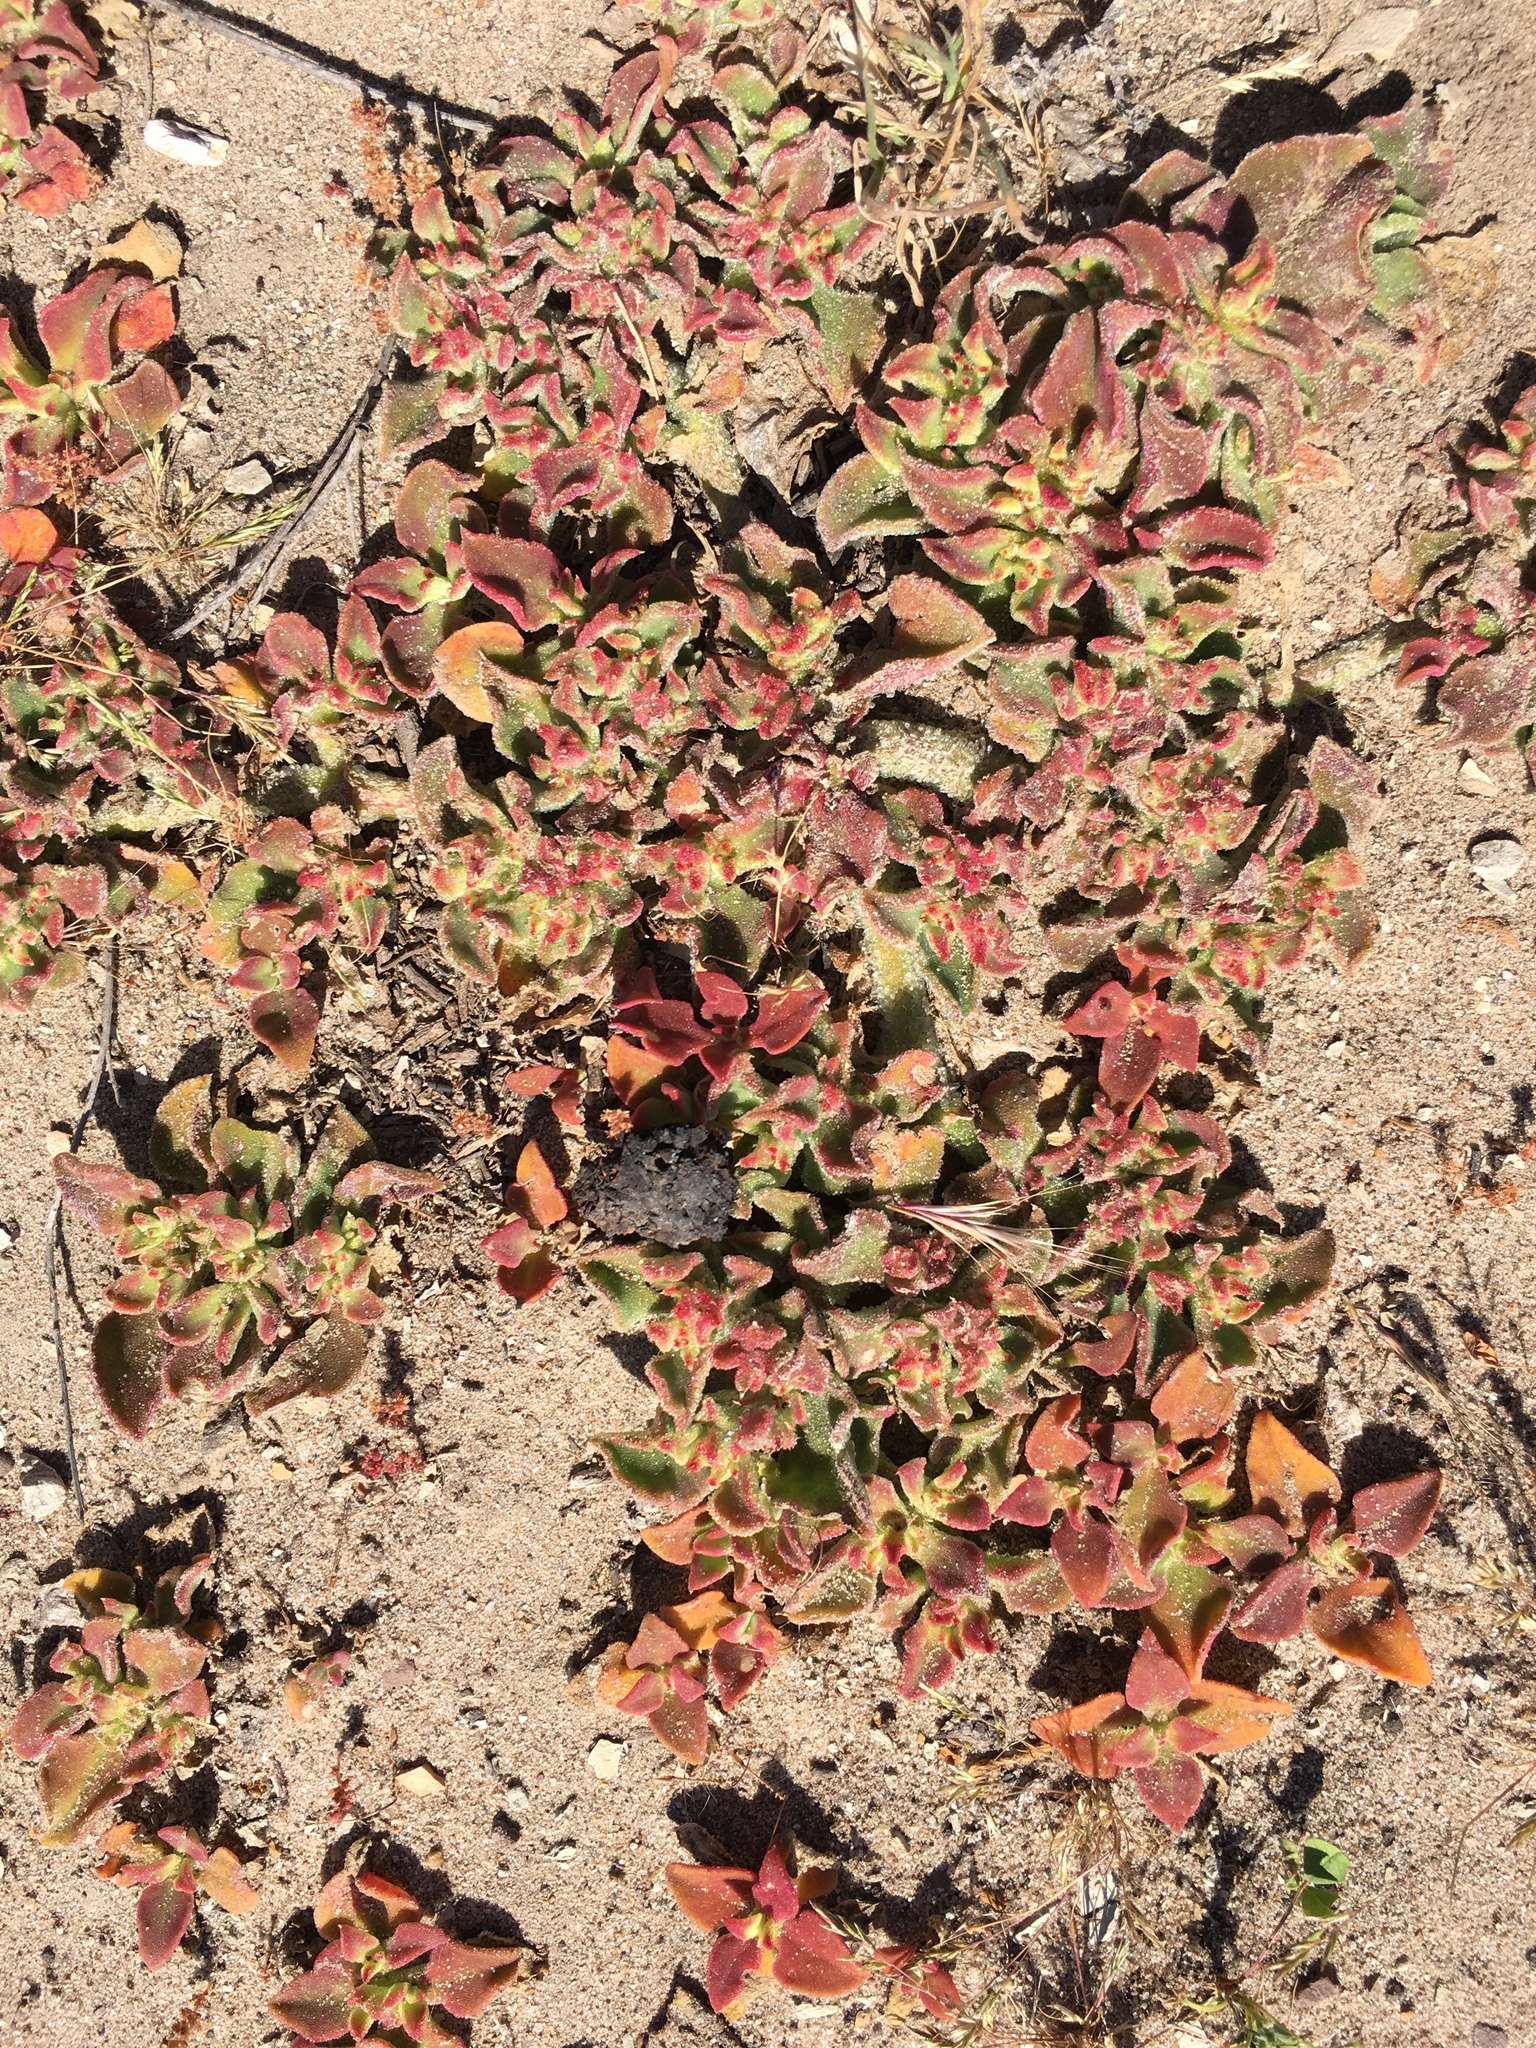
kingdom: Plantae
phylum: Tracheophyta
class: Magnoliopsida
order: Caryophyllales
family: Aizoaceae
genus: Mesembryanthemum
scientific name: Mesembryanthemum crystallinum
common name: Common iceplant
